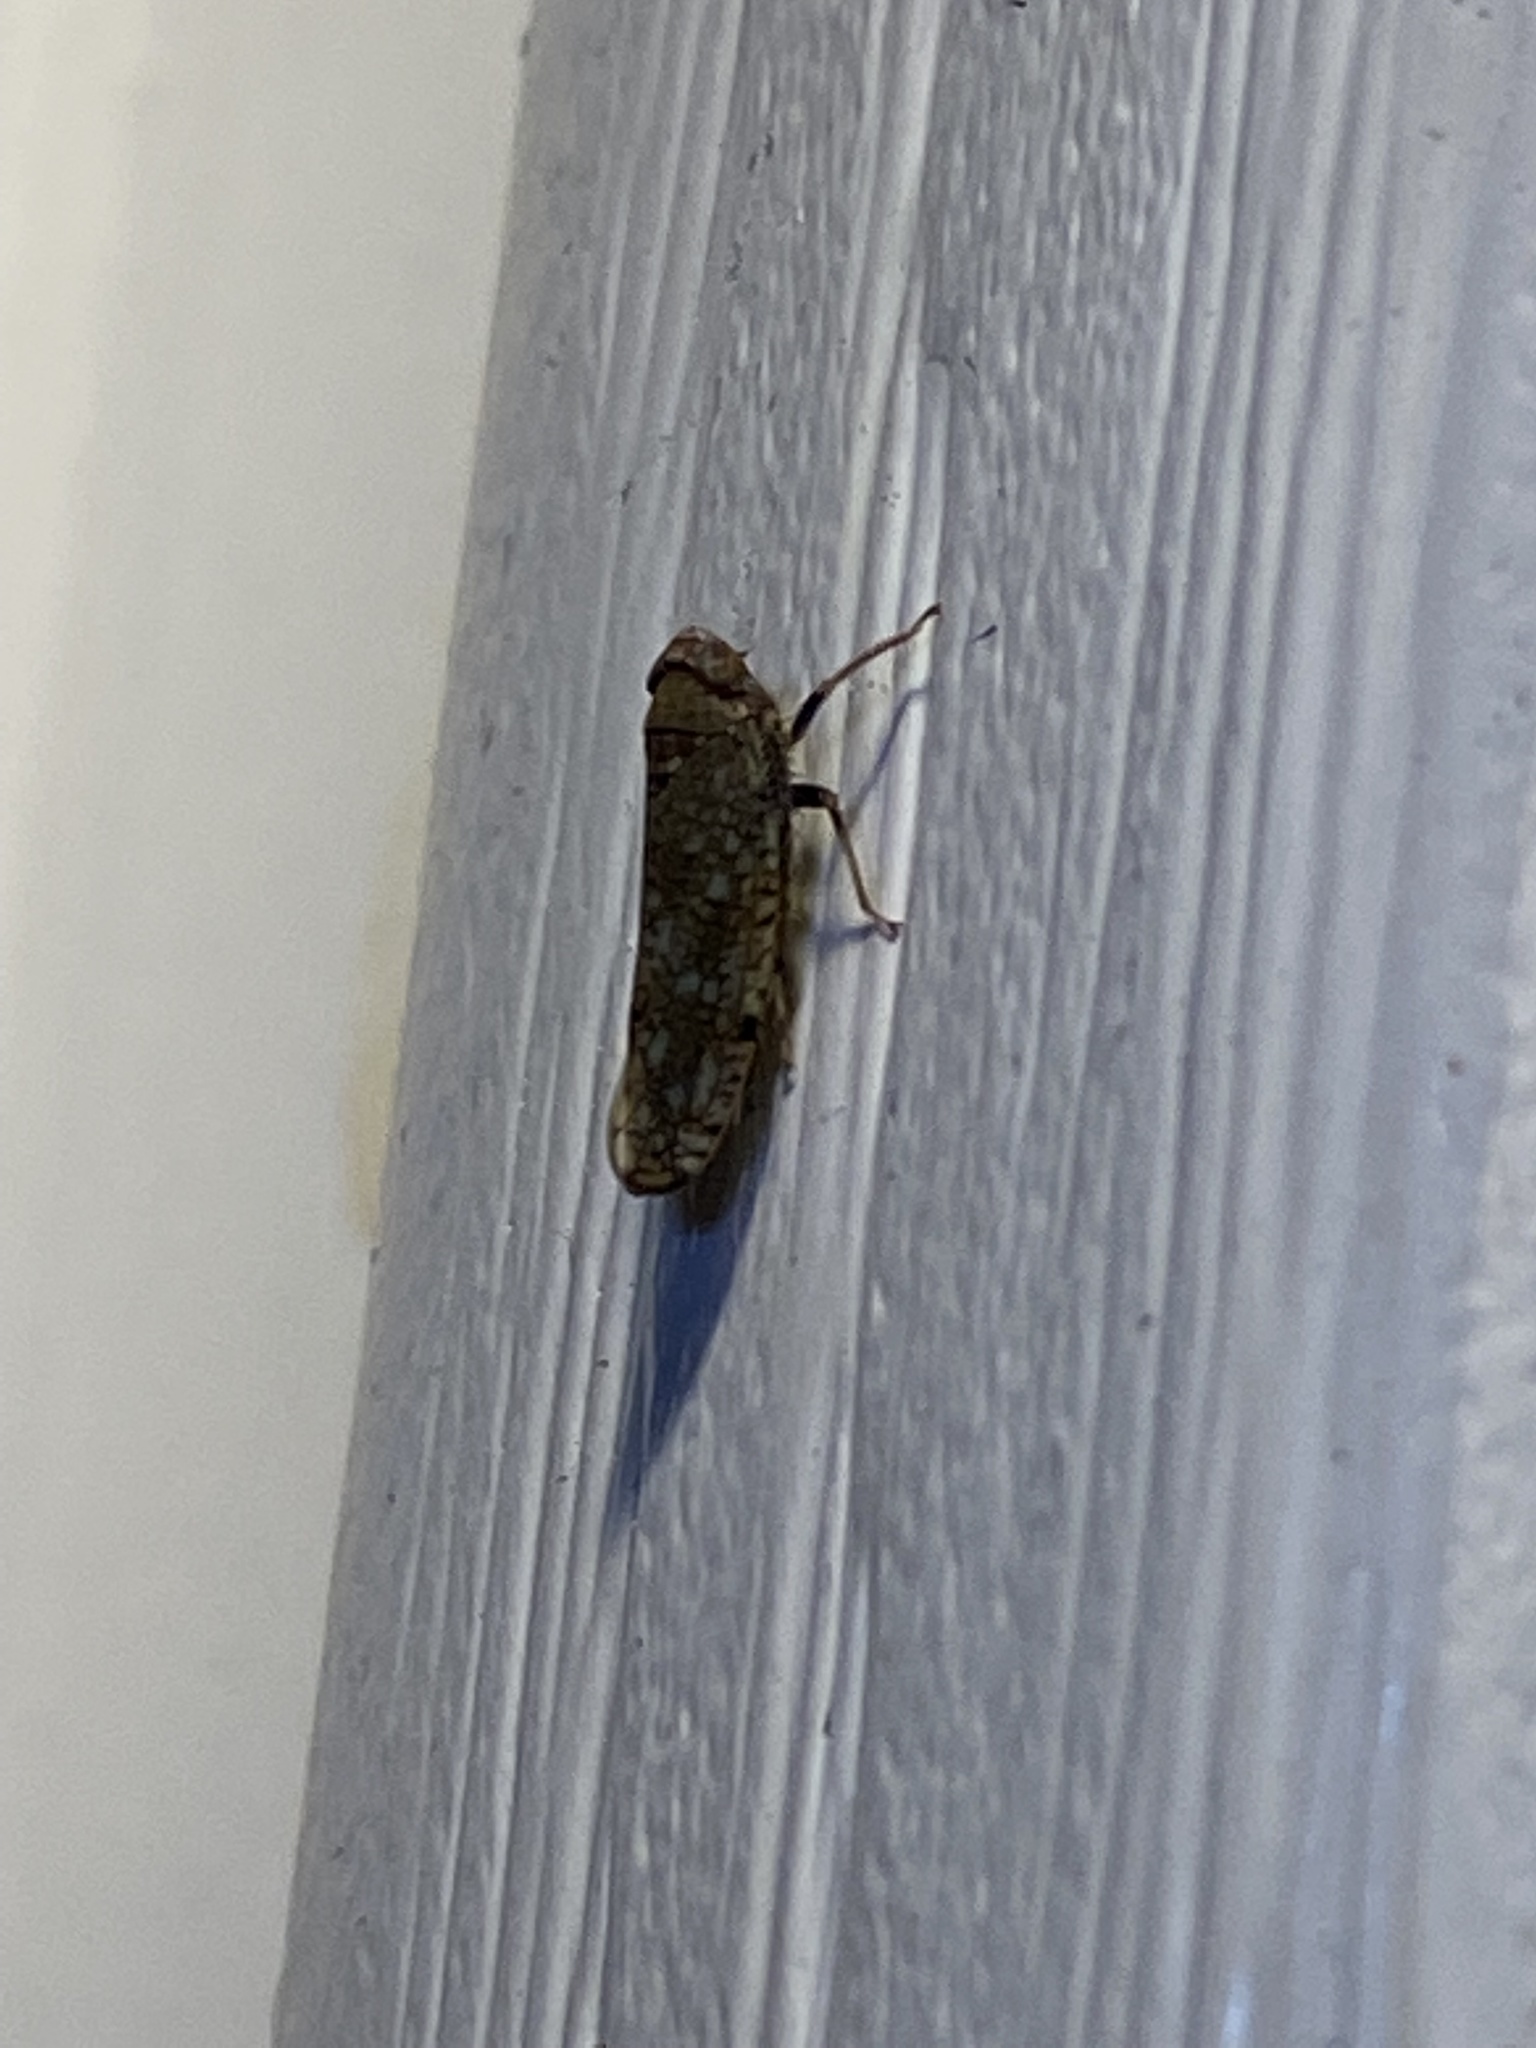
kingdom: Animalia
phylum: Arthropoda
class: Insecta
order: Hemiptera
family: Cicadellidae
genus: Orientus
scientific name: Orientus ishidae
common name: Japanese leafhopper
